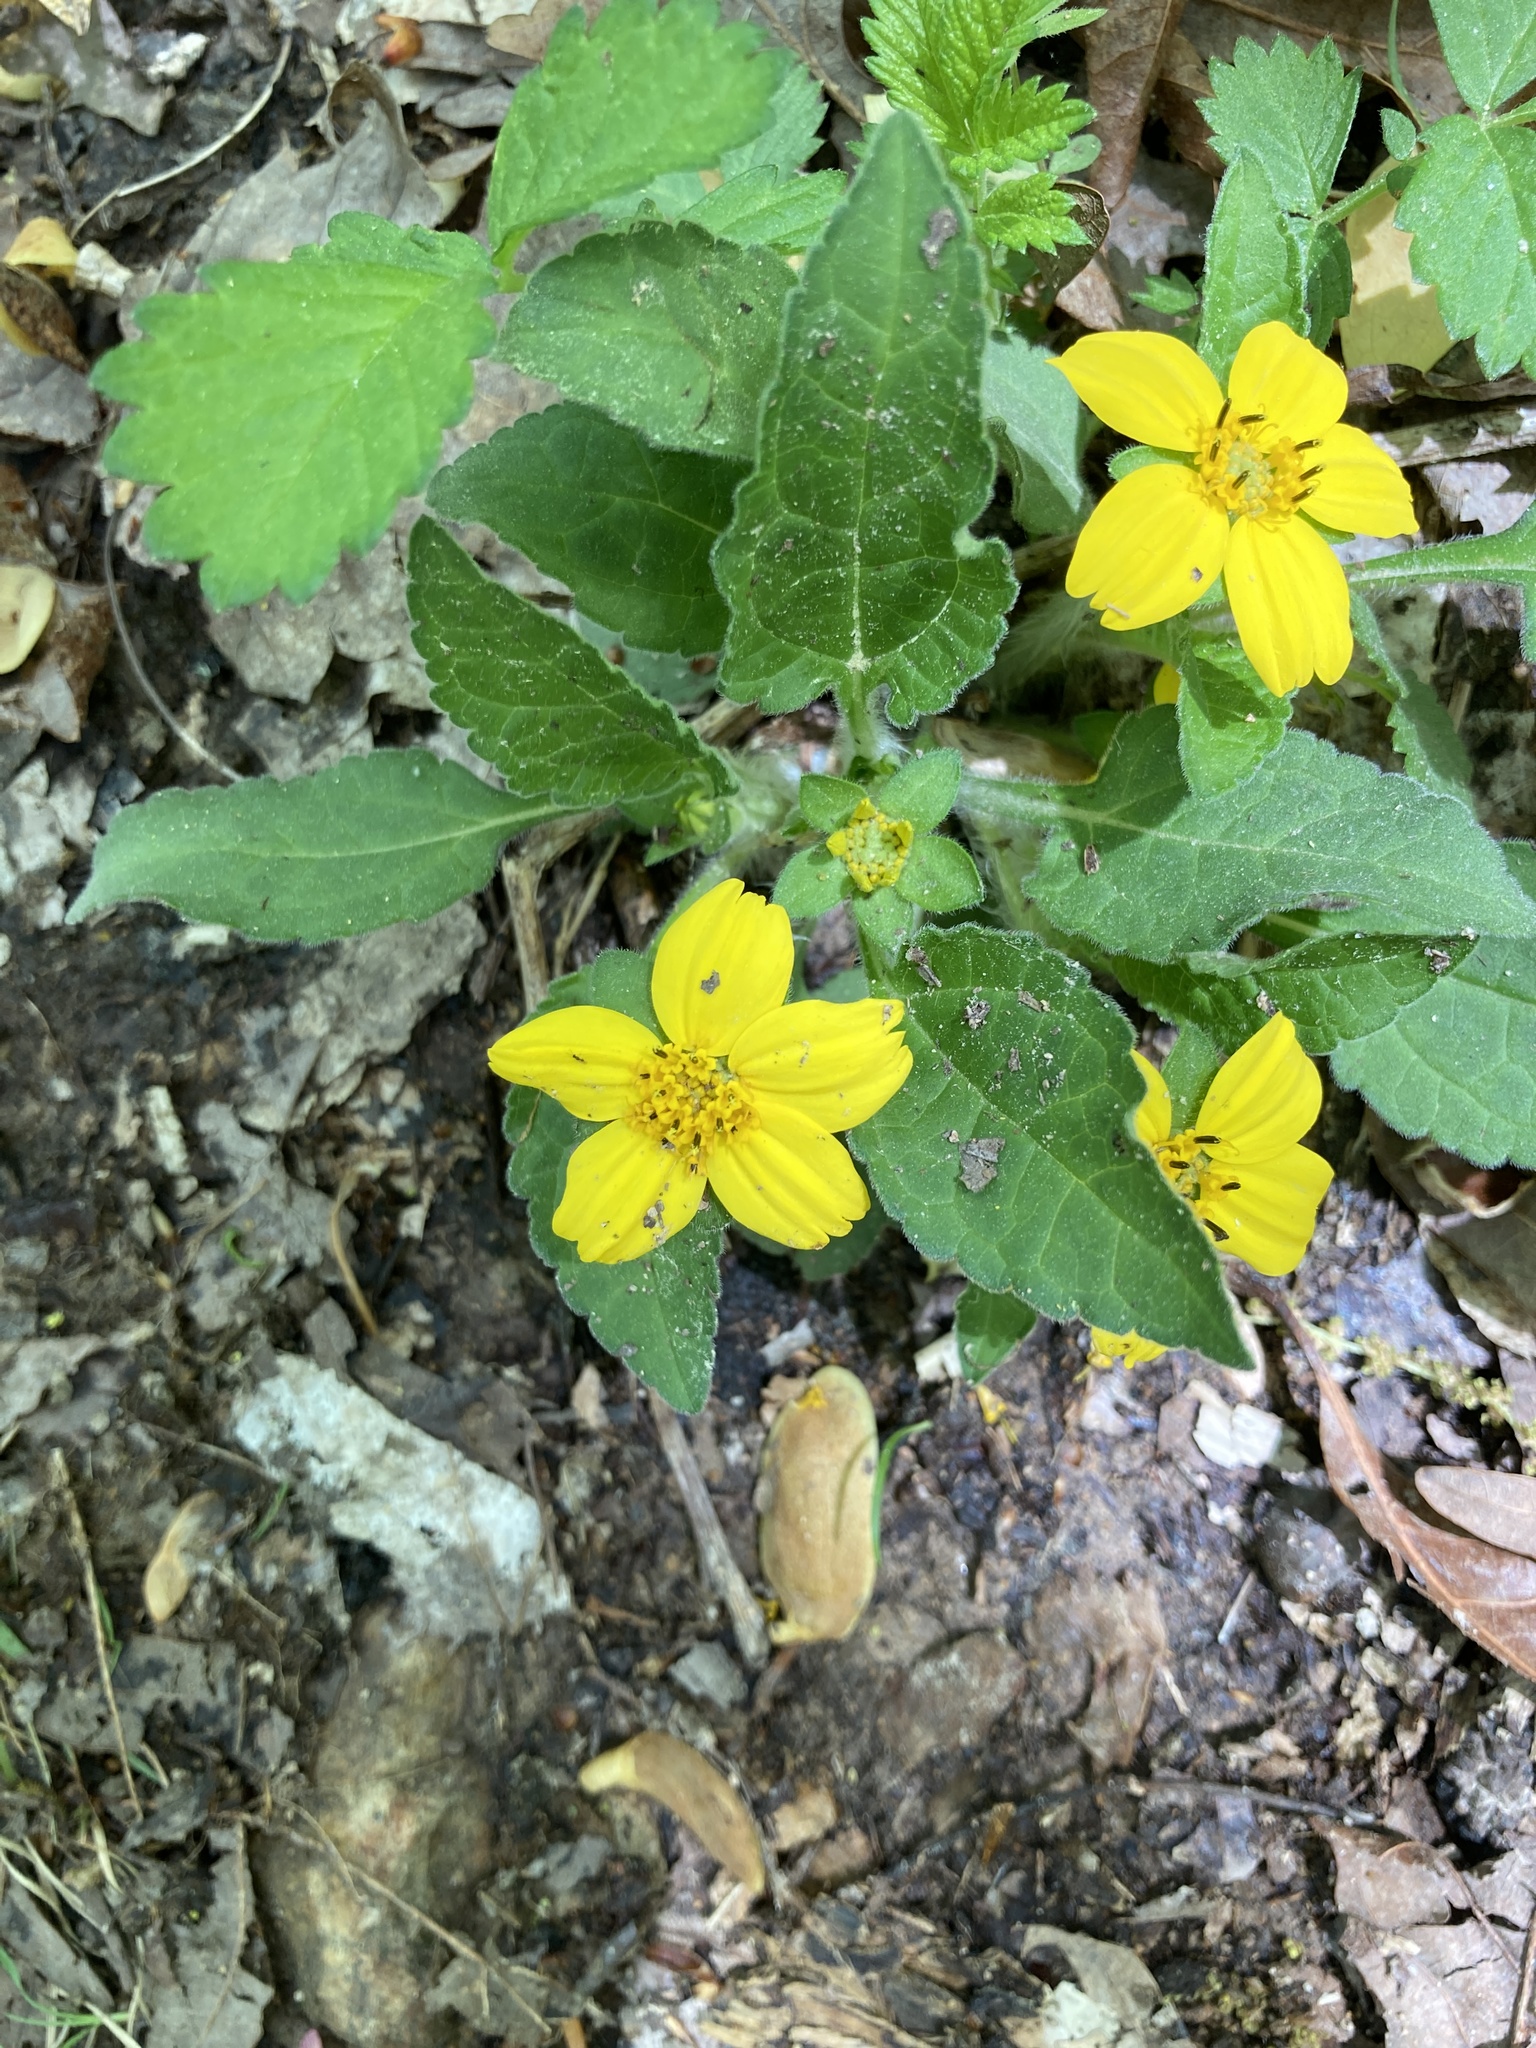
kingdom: Plantae
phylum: Tracheophyta
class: Magnoliopsida
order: Asterales
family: Asteraceae
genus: Chrysogonum
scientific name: Chrysogonum virginianum
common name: Golden-knee
